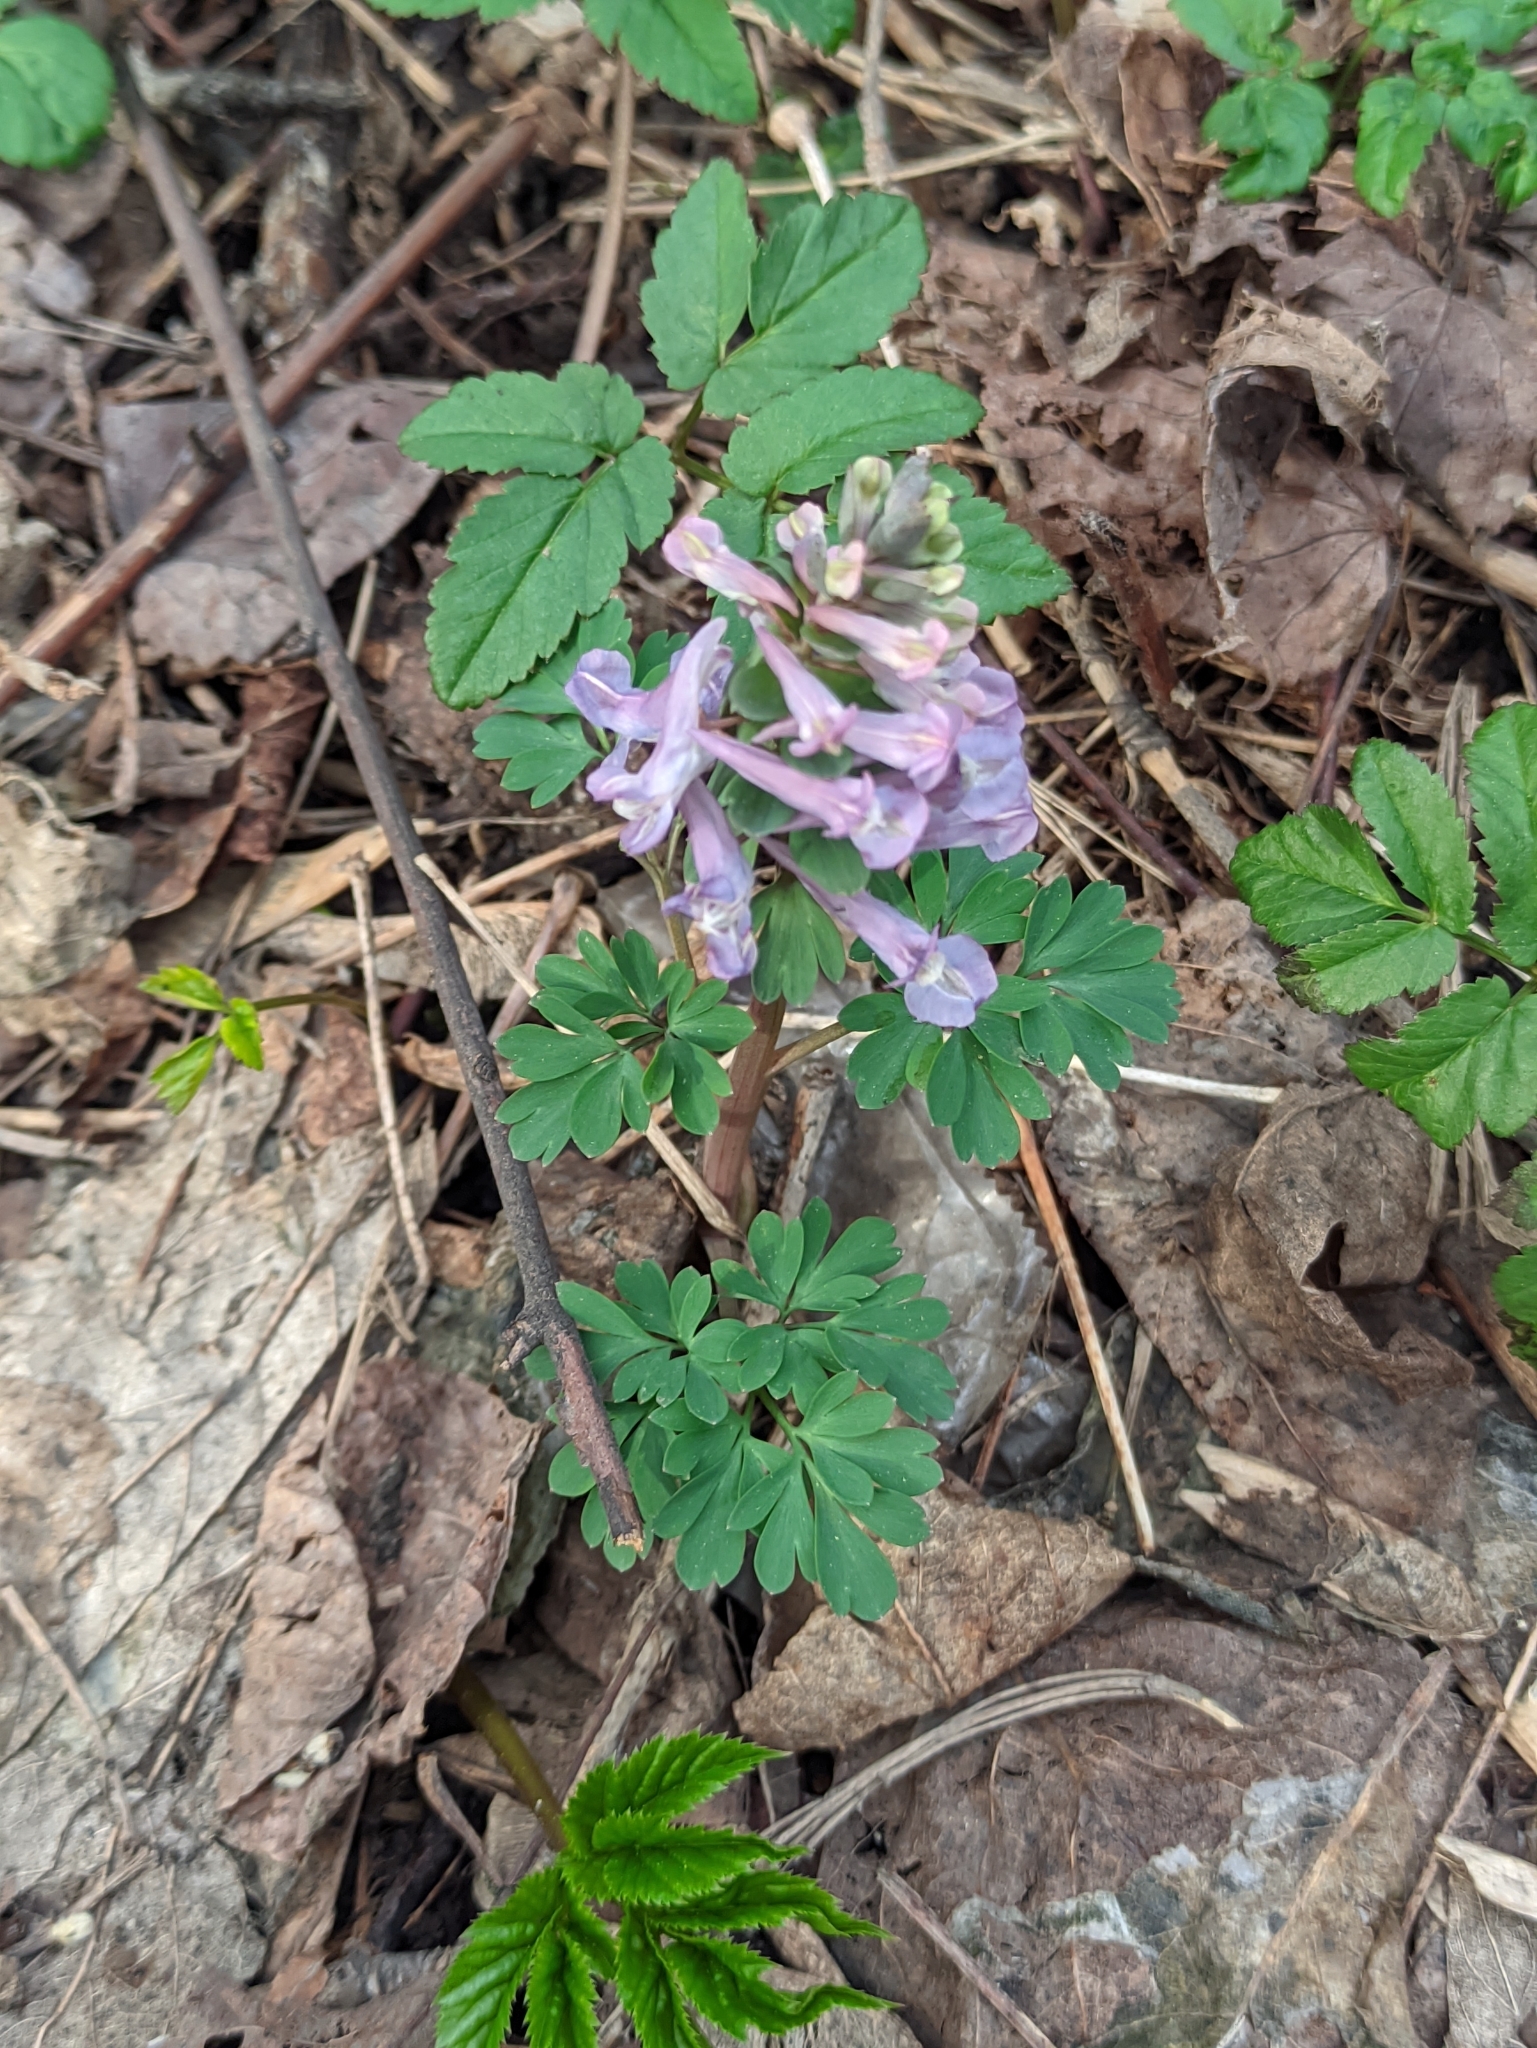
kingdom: Plantae
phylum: Tracheophyta
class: Magnoliopsida
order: Ranunculales
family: Papaveraceae
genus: Corydalis
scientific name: Corydalis solida
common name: Bird-in-a-bush
